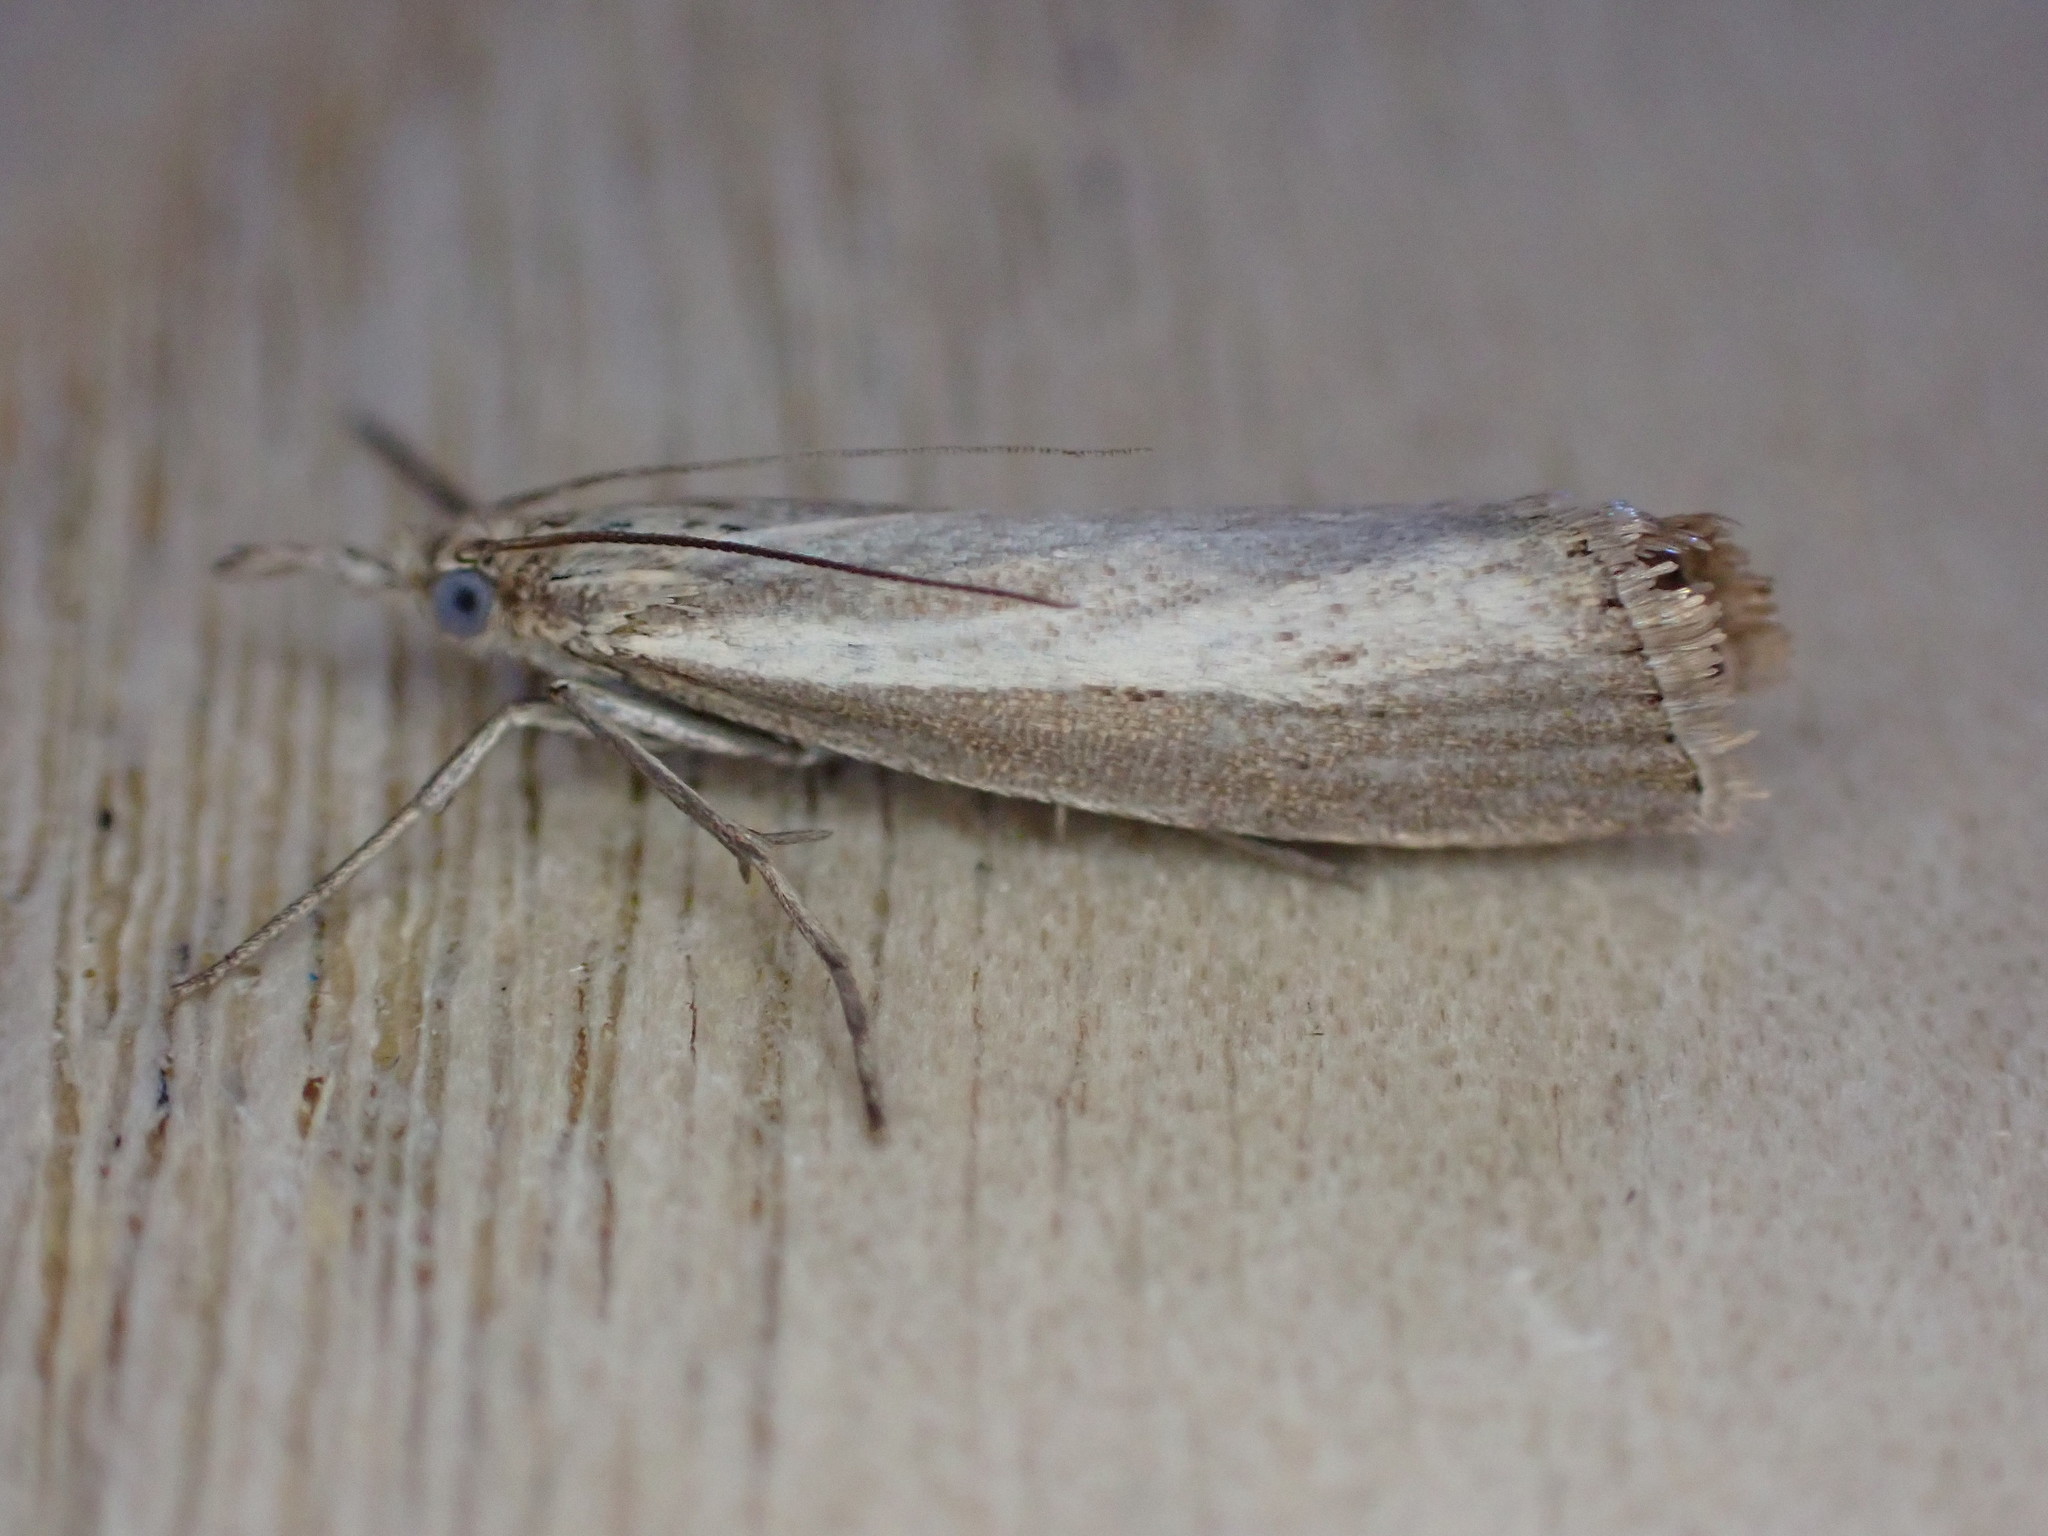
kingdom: Animalia
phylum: Arthropoda
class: Insecta
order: Lepidoptera
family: Crambidae
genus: Agriphila
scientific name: Agriphila straminella
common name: Straw grass-veneer
